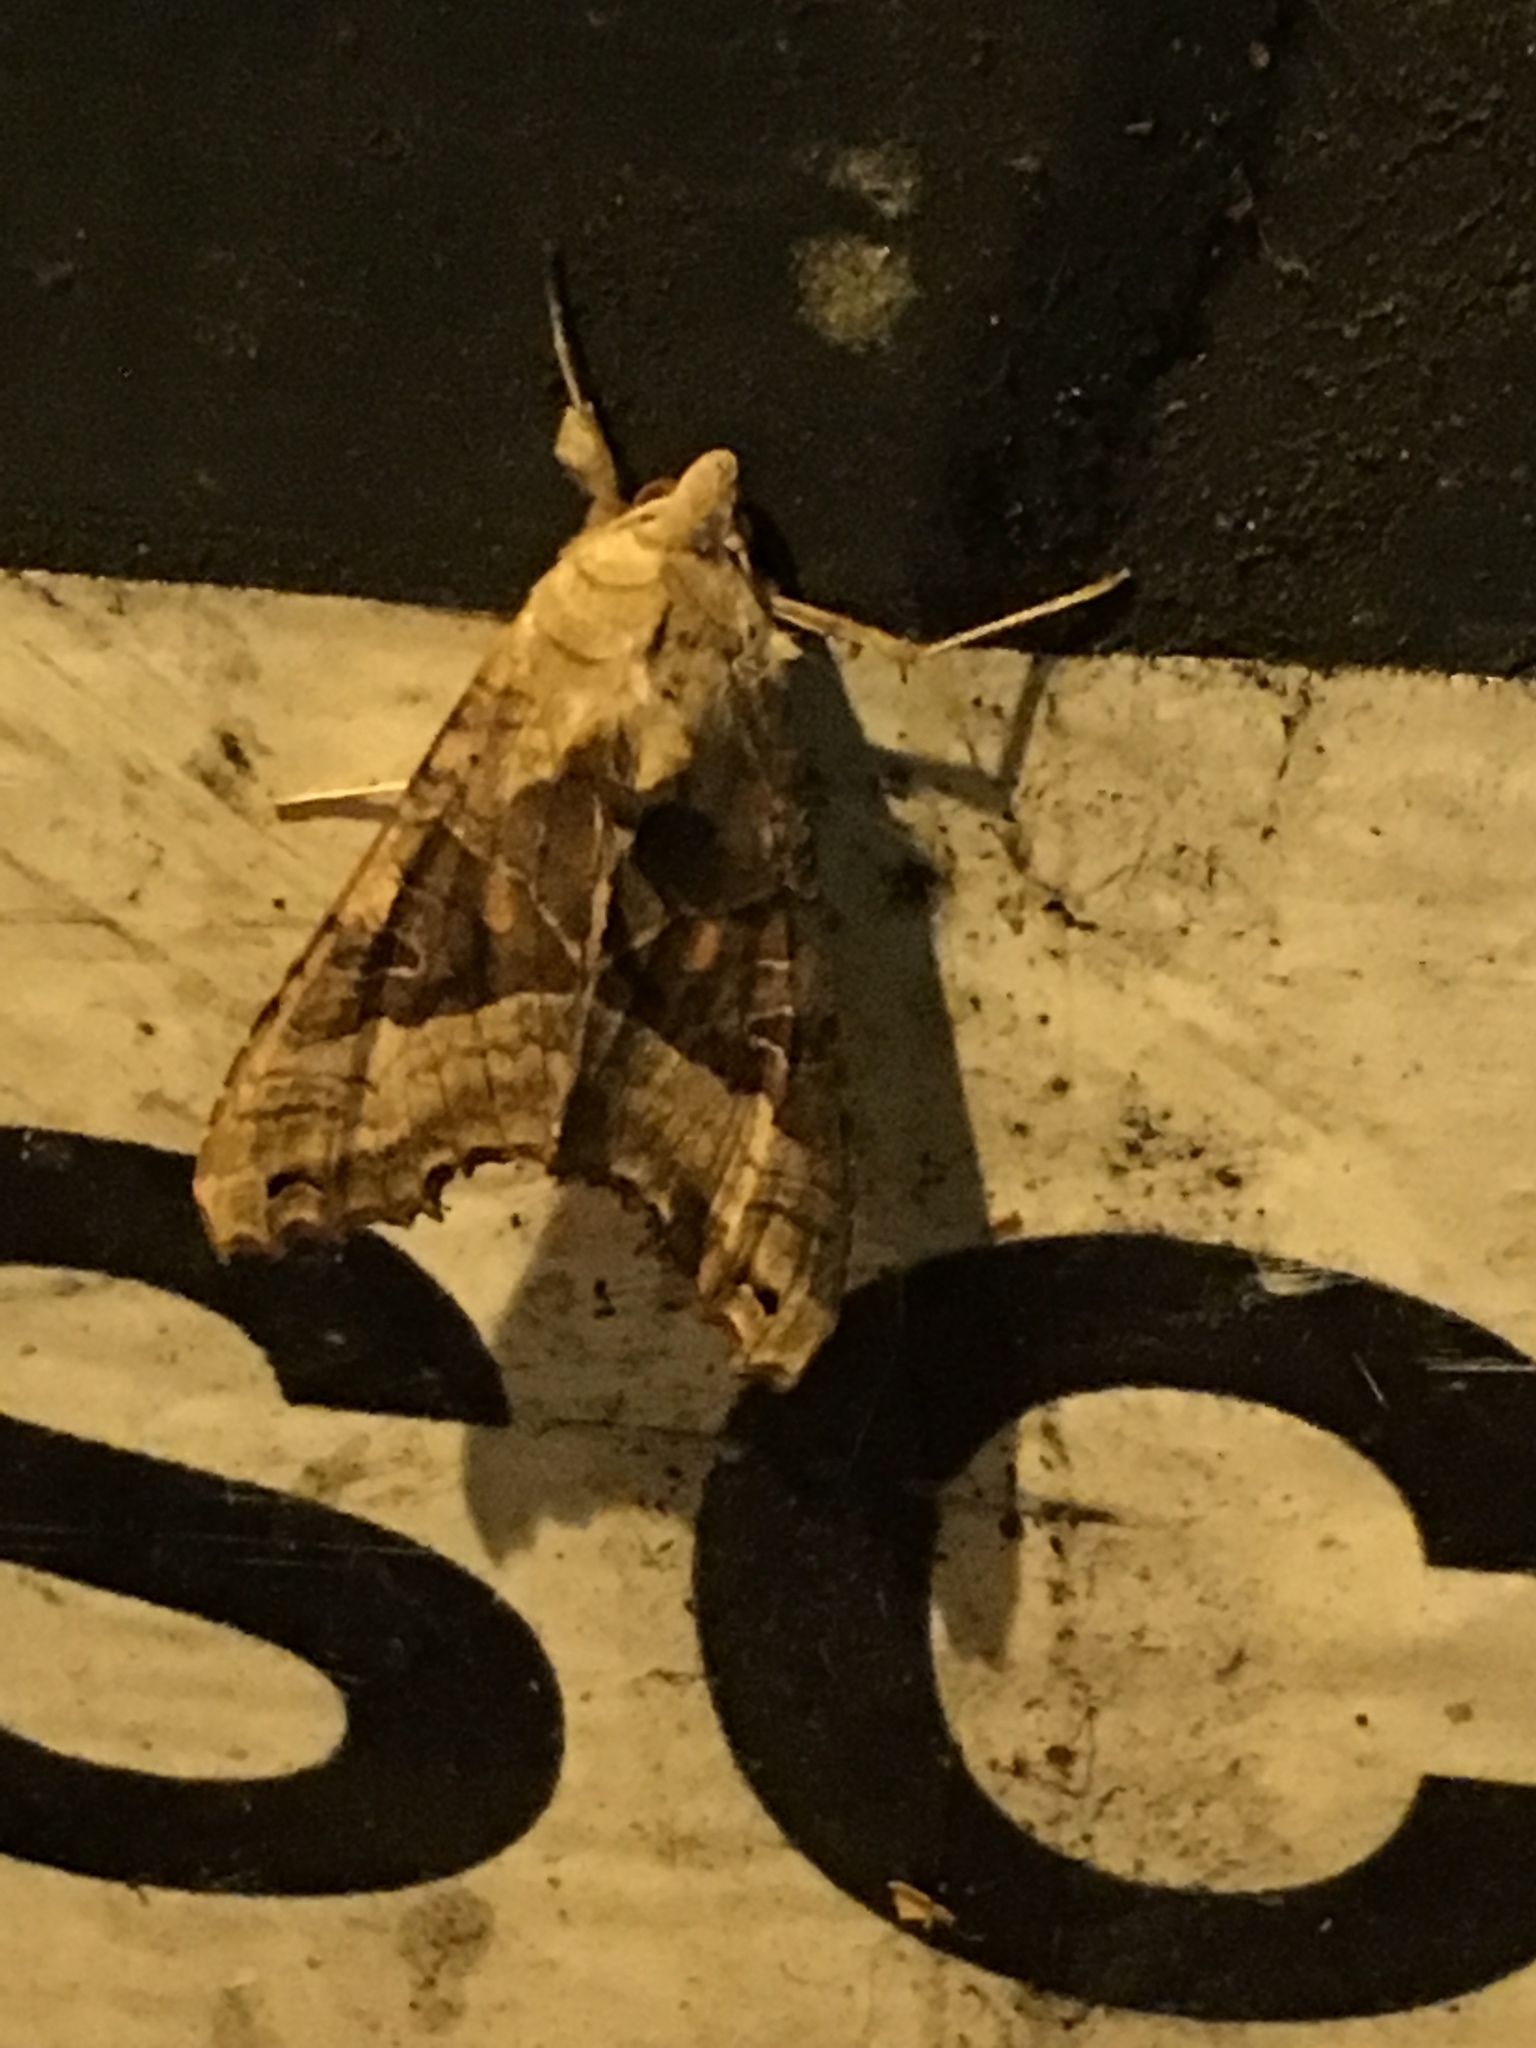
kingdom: Animalia
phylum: Arthropoda
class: Insecta
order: Lepidoptera
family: Noctuidae
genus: Phlogophora
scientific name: Phlogophora meticulosa
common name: Angle shades
